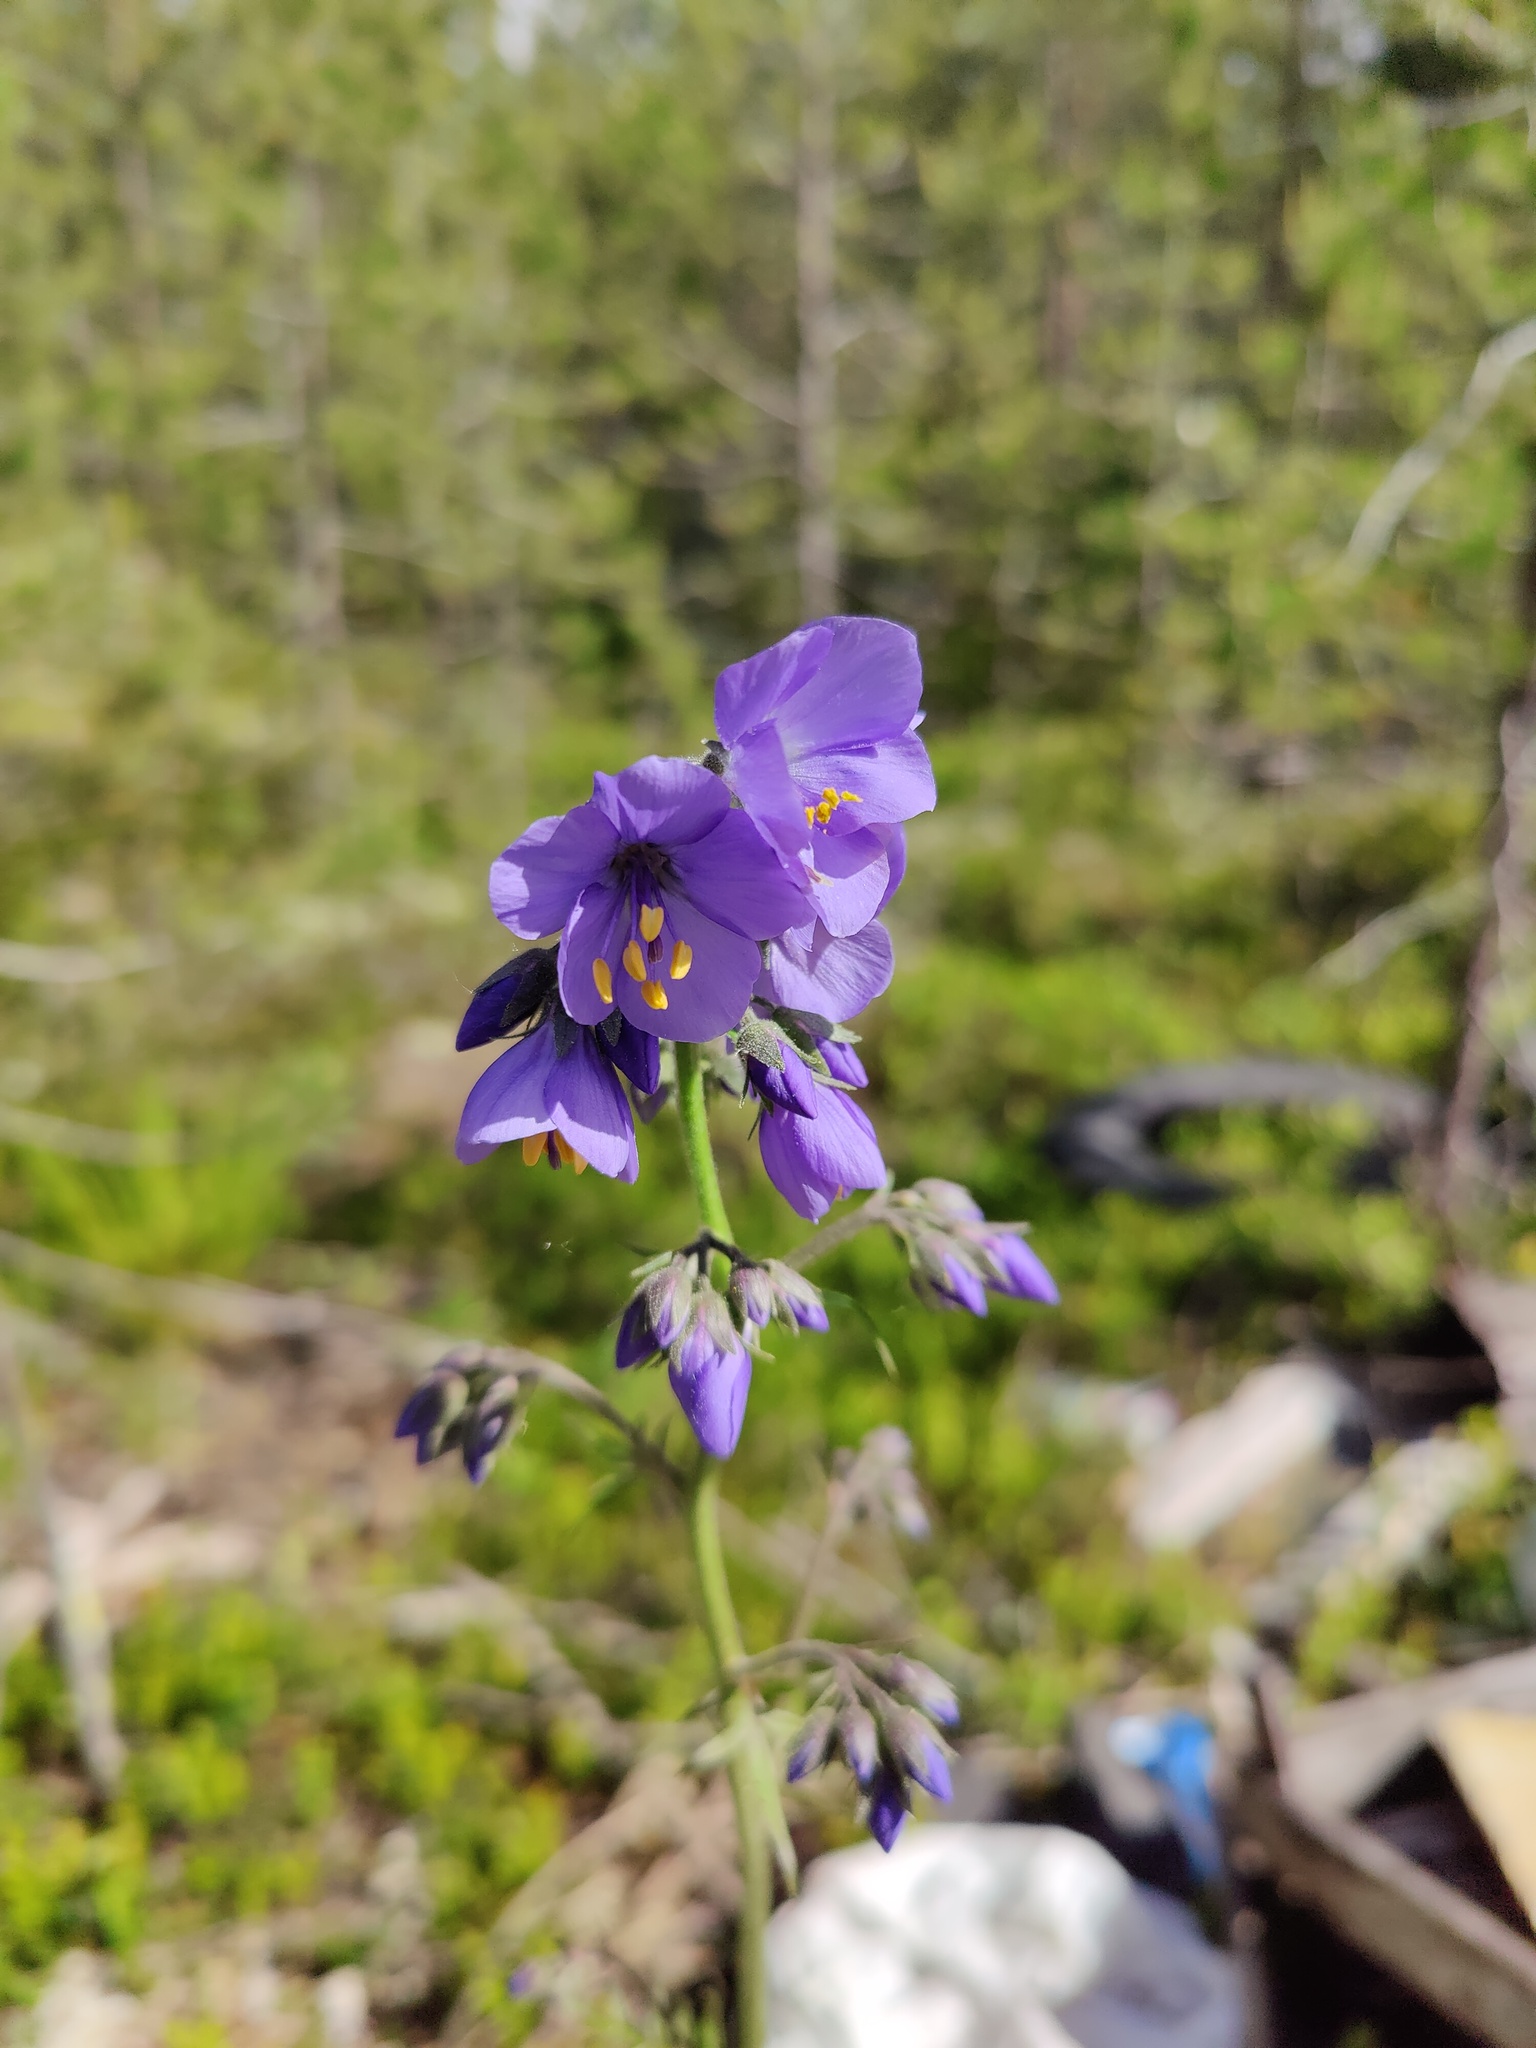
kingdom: Plantae
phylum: Tracheophyta
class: Magnoliopsida
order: Ericales
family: Polemoniaceae
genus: Polemonium
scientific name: Polemonium caeruleum
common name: Jacob's-ladder
